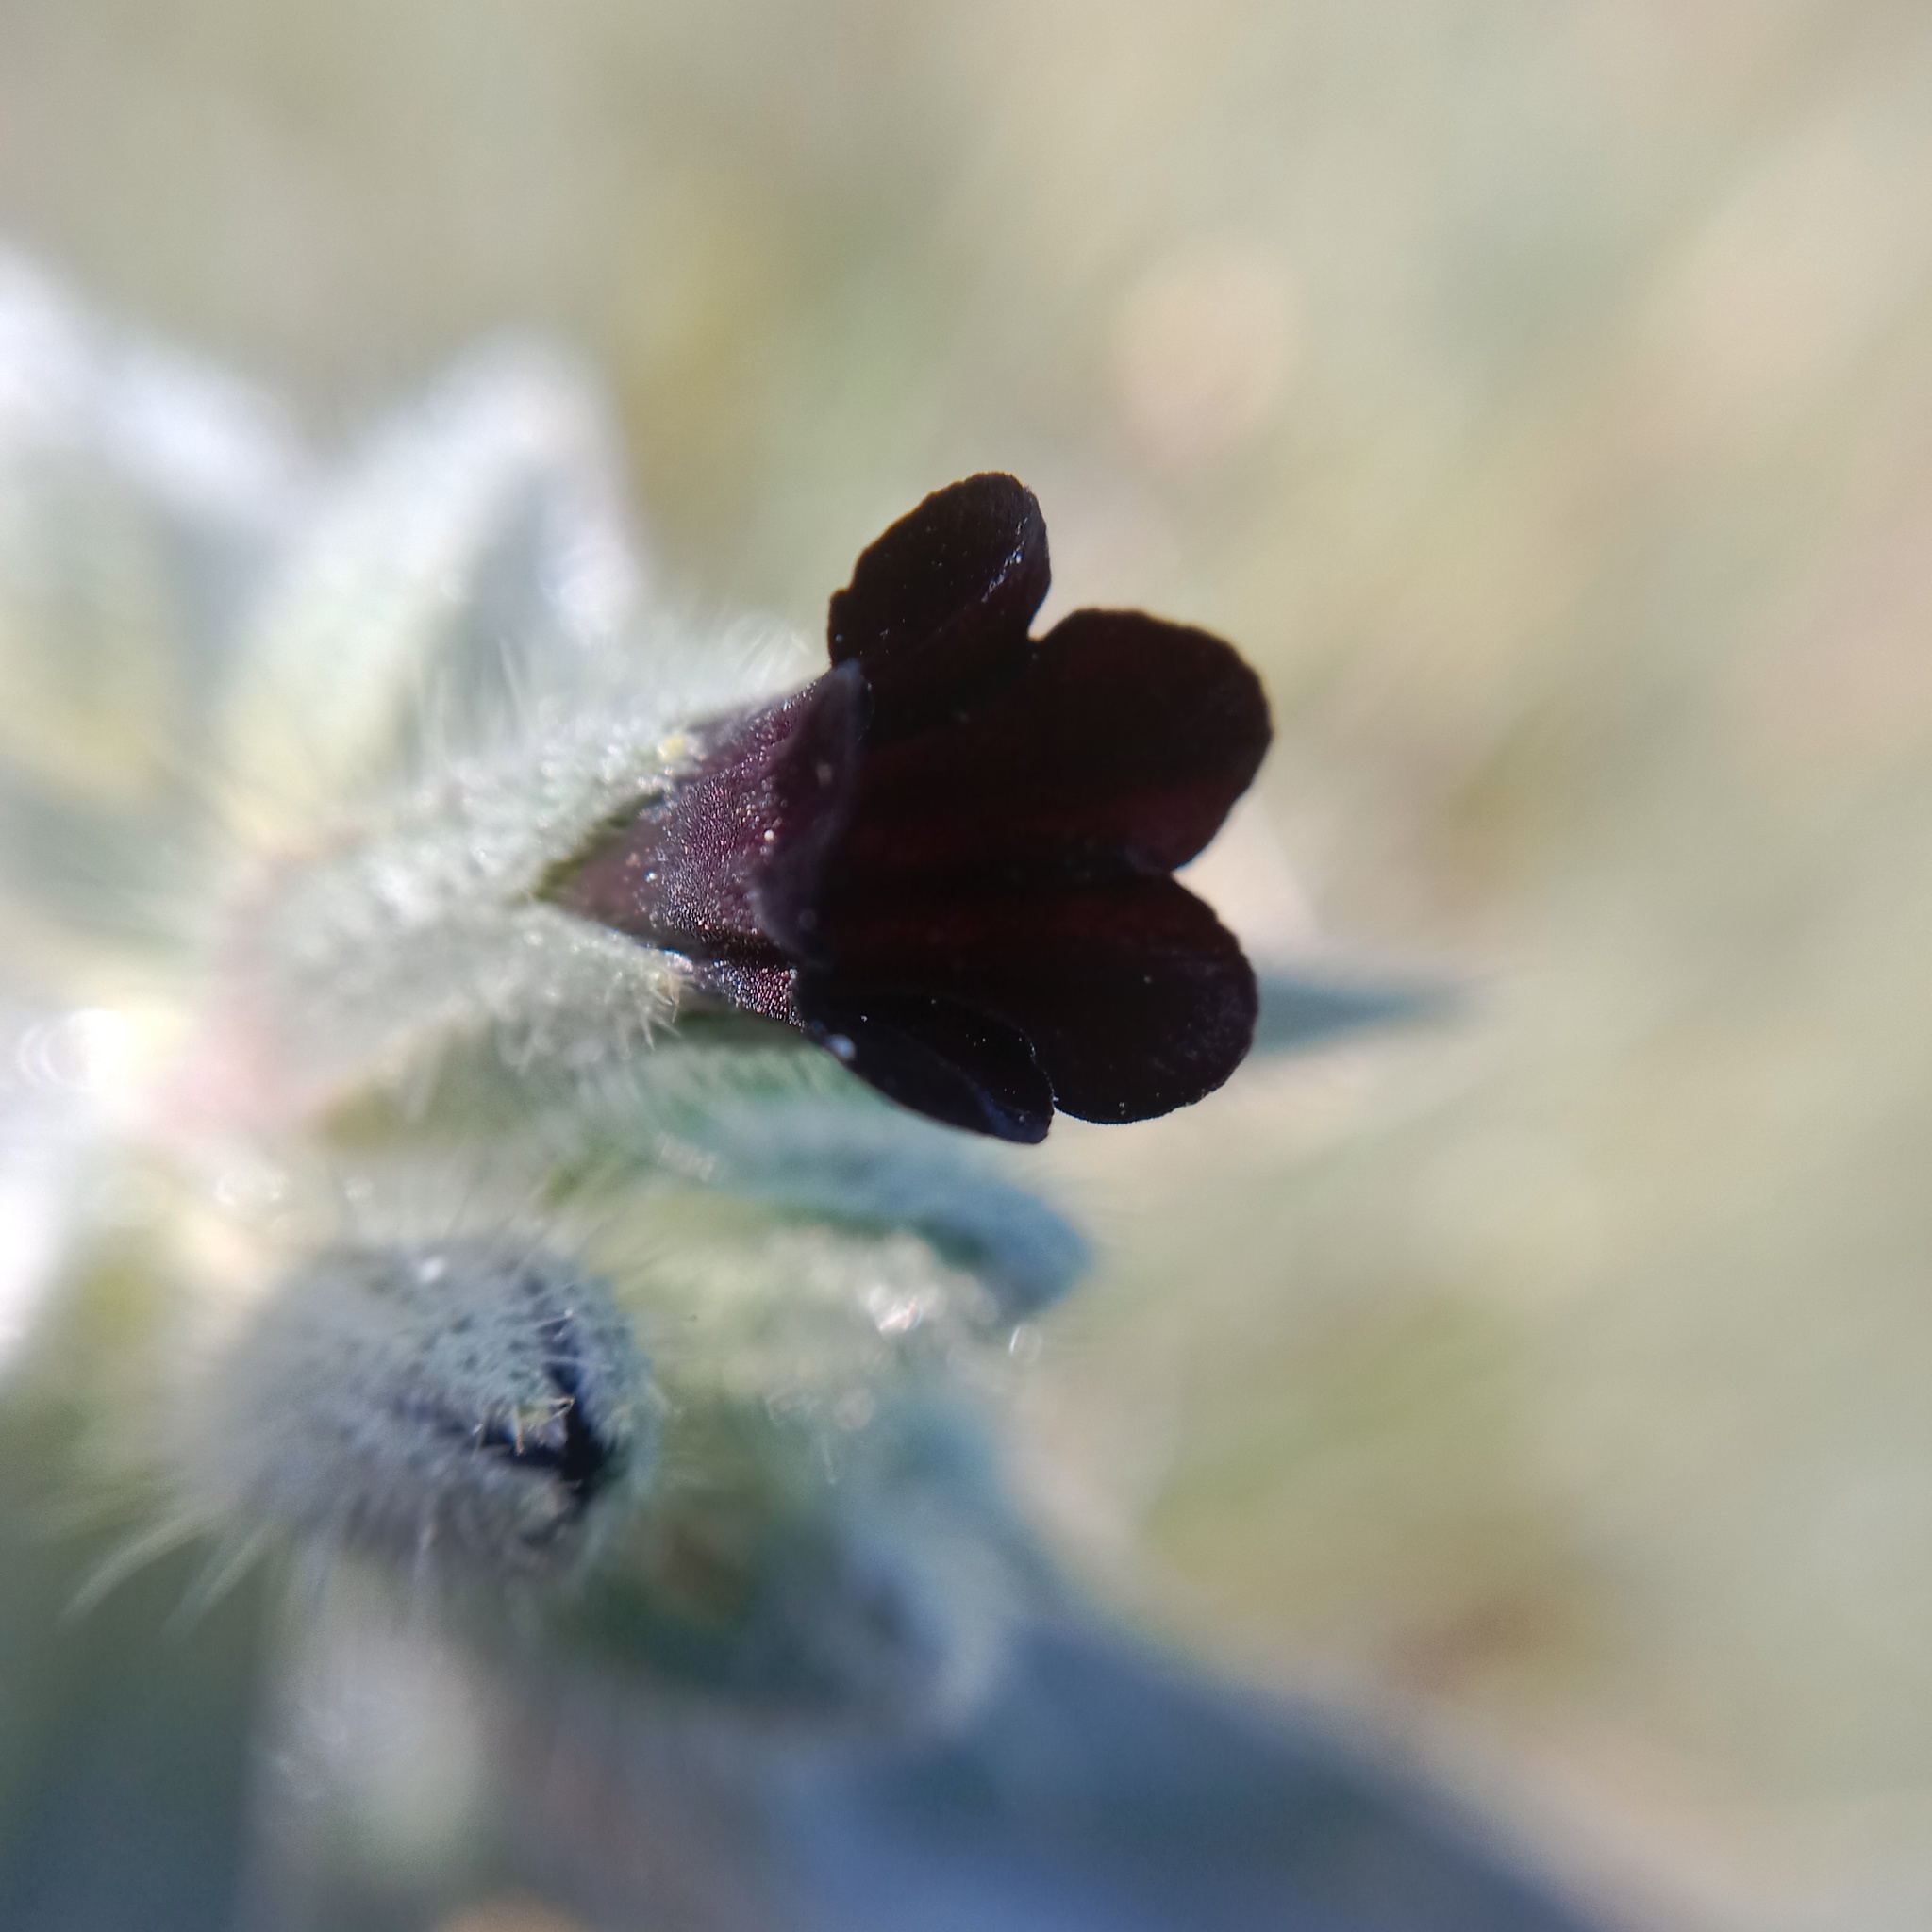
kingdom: Plantae
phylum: Tracheophyta
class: Magnoliopsida
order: Boraginales
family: Boraginaceae
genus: Nonea
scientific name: Nonea pulla
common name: Brown nonea
